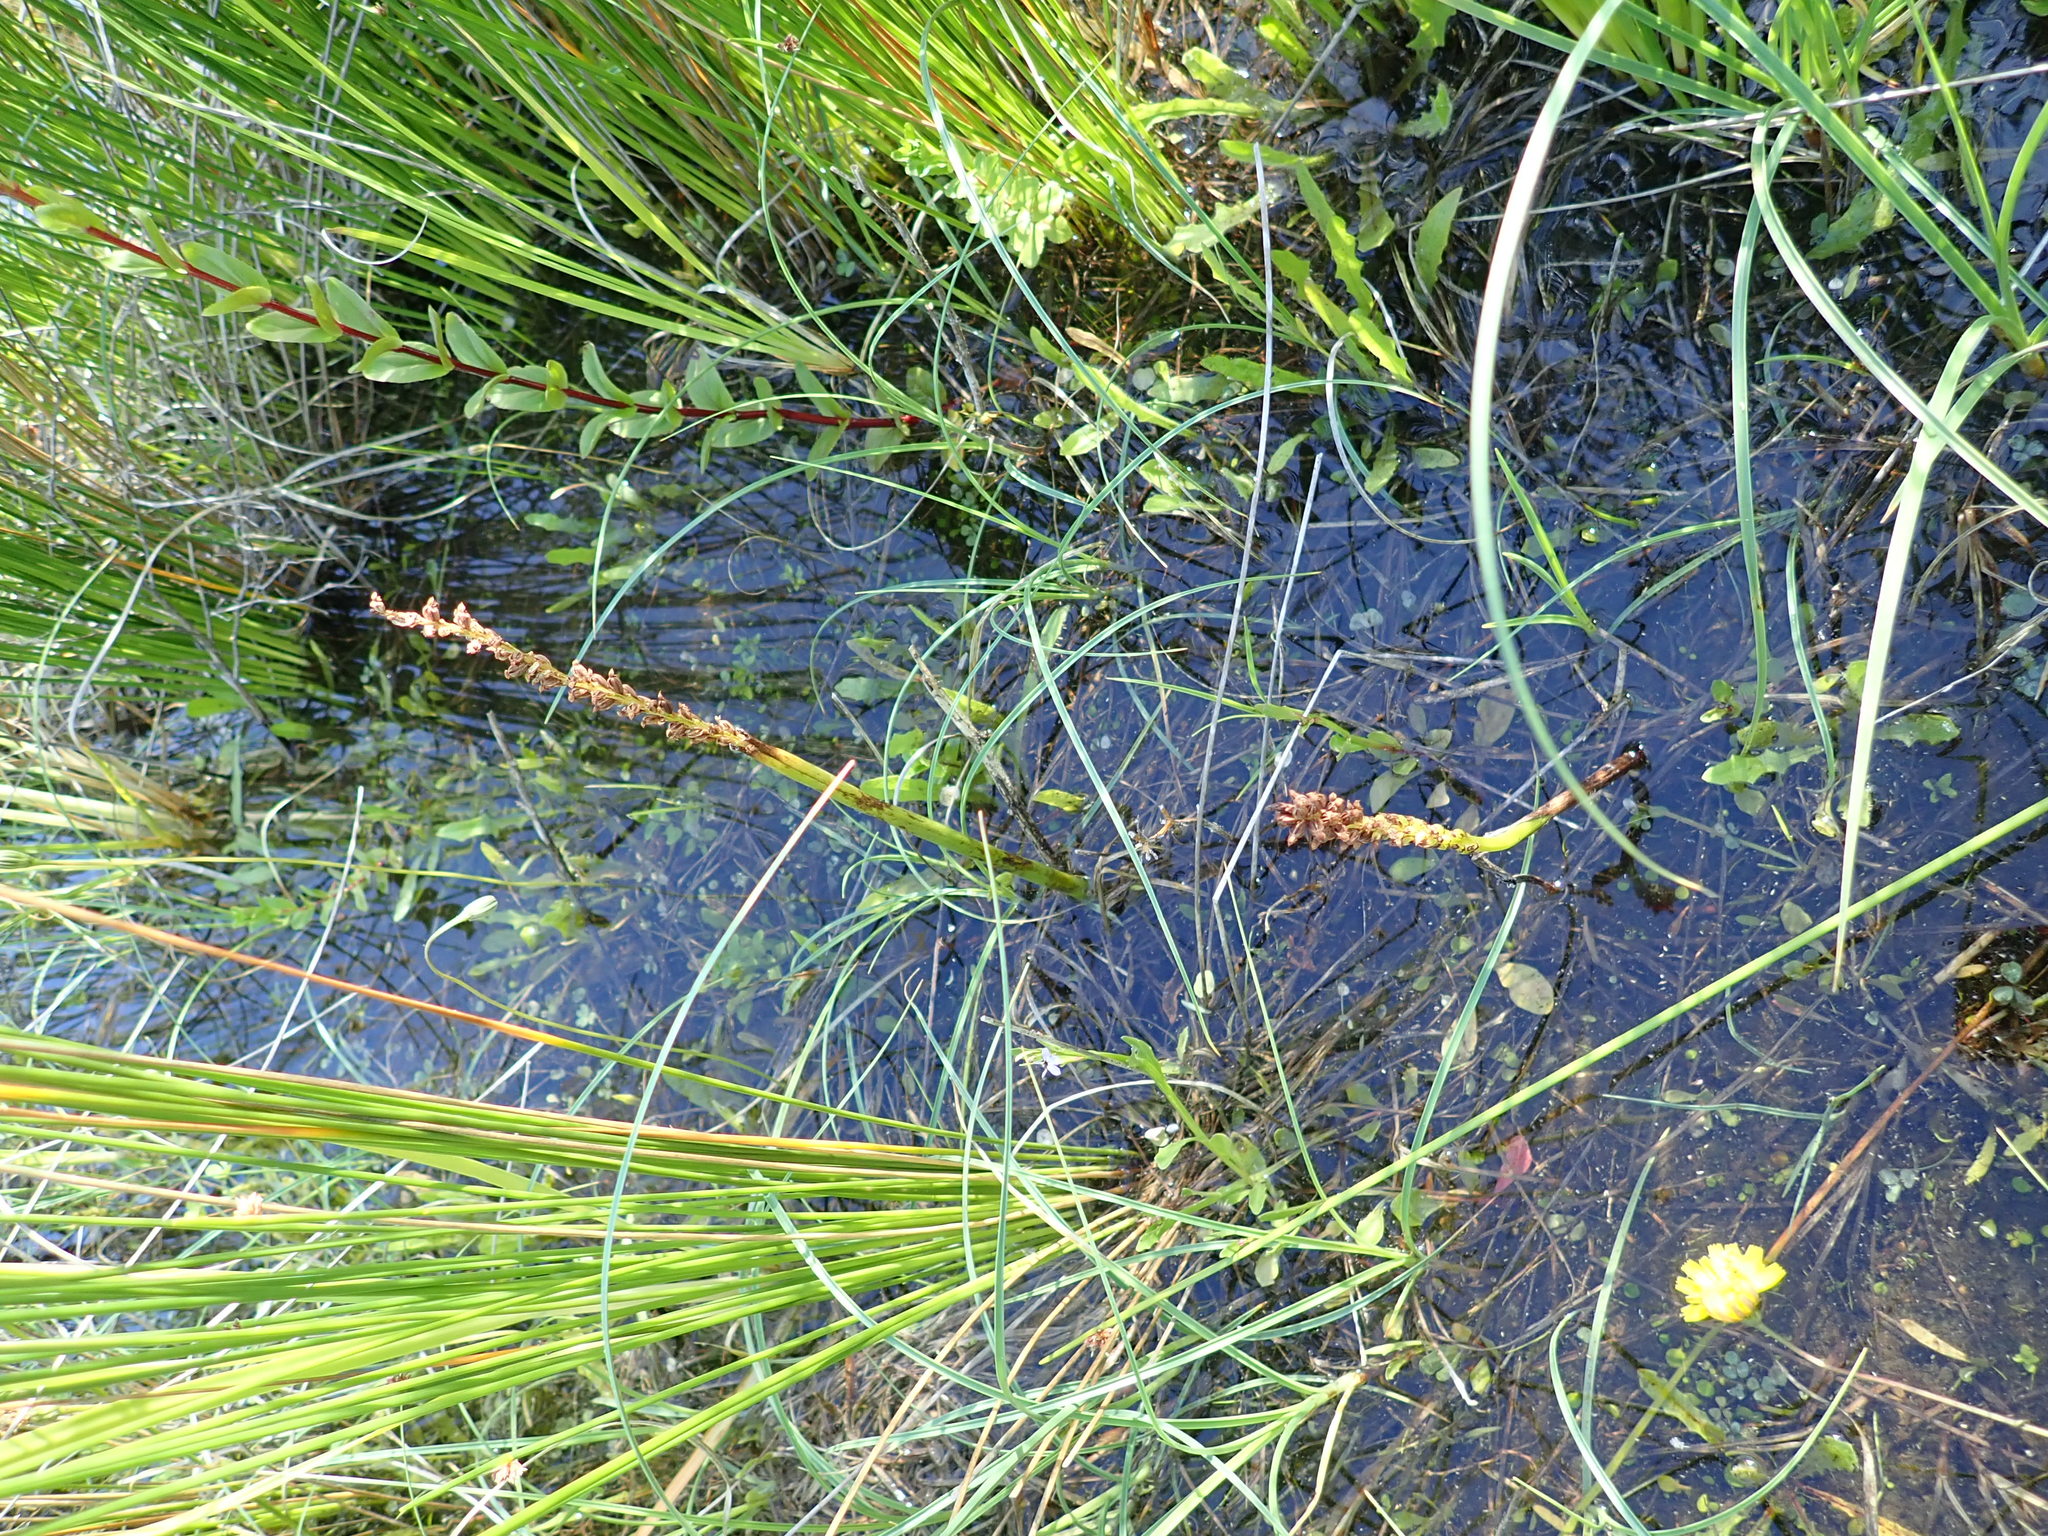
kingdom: Plantae
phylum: Tracheophyta
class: Liliopsida
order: Asparagales
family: Orchidaceae
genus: Microtis
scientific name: Microtis unifolia
